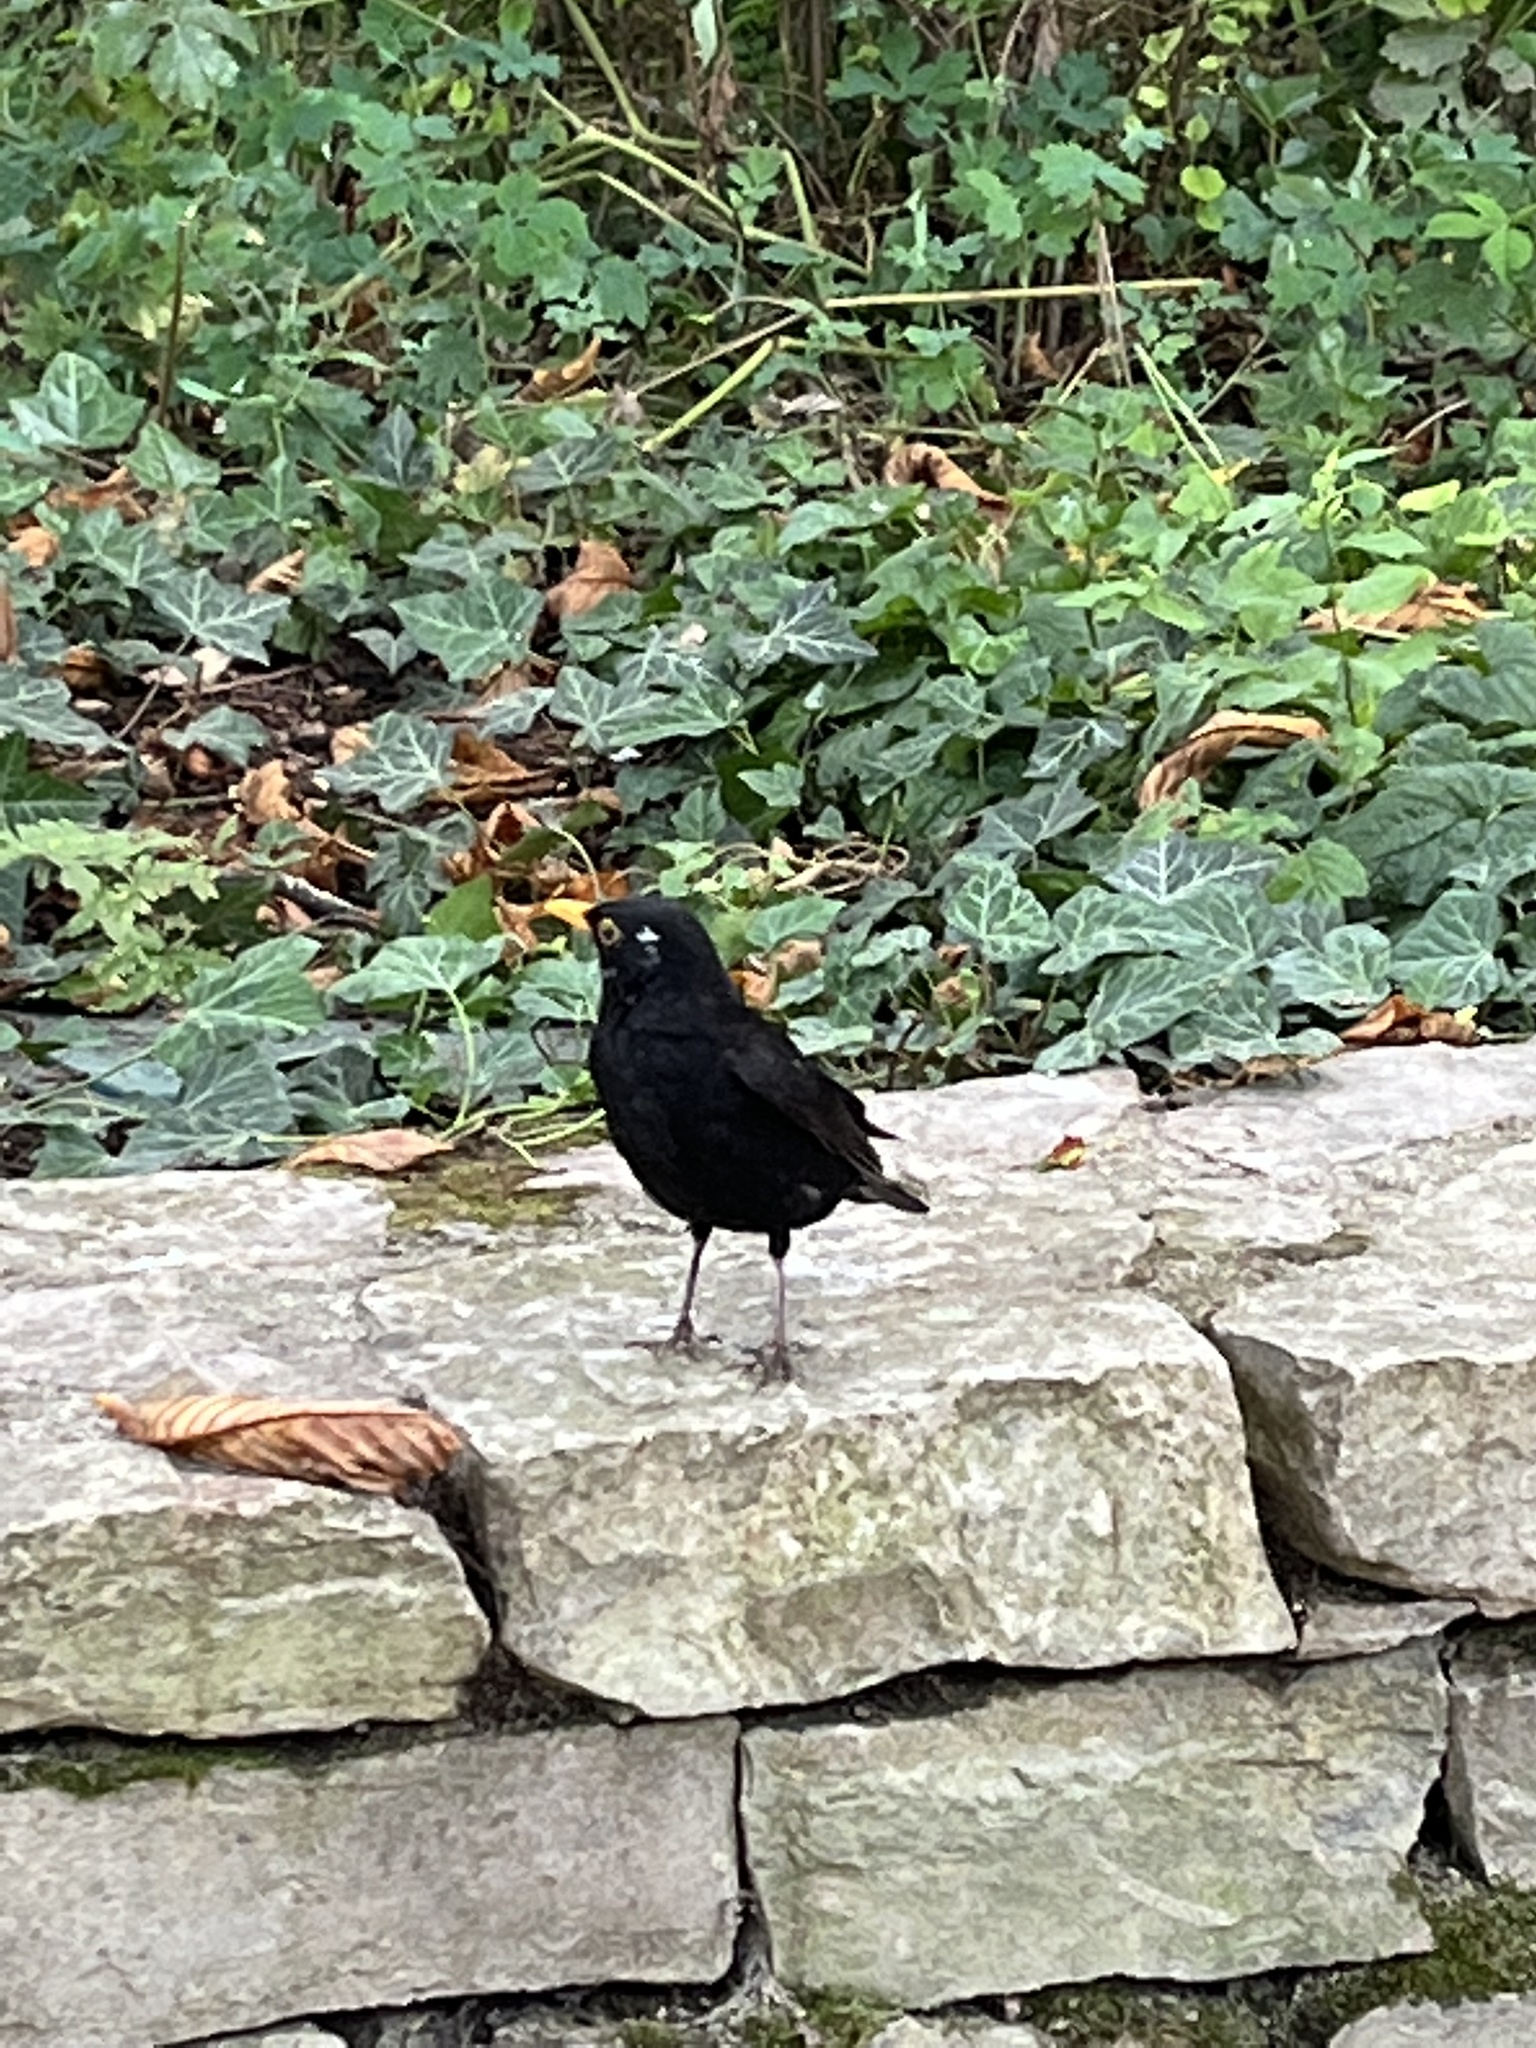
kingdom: Animalia
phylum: Chordata
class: Aves
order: Passeriformes
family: Turdidae
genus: Turdus
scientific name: Turdus merula
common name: Common blackbird
